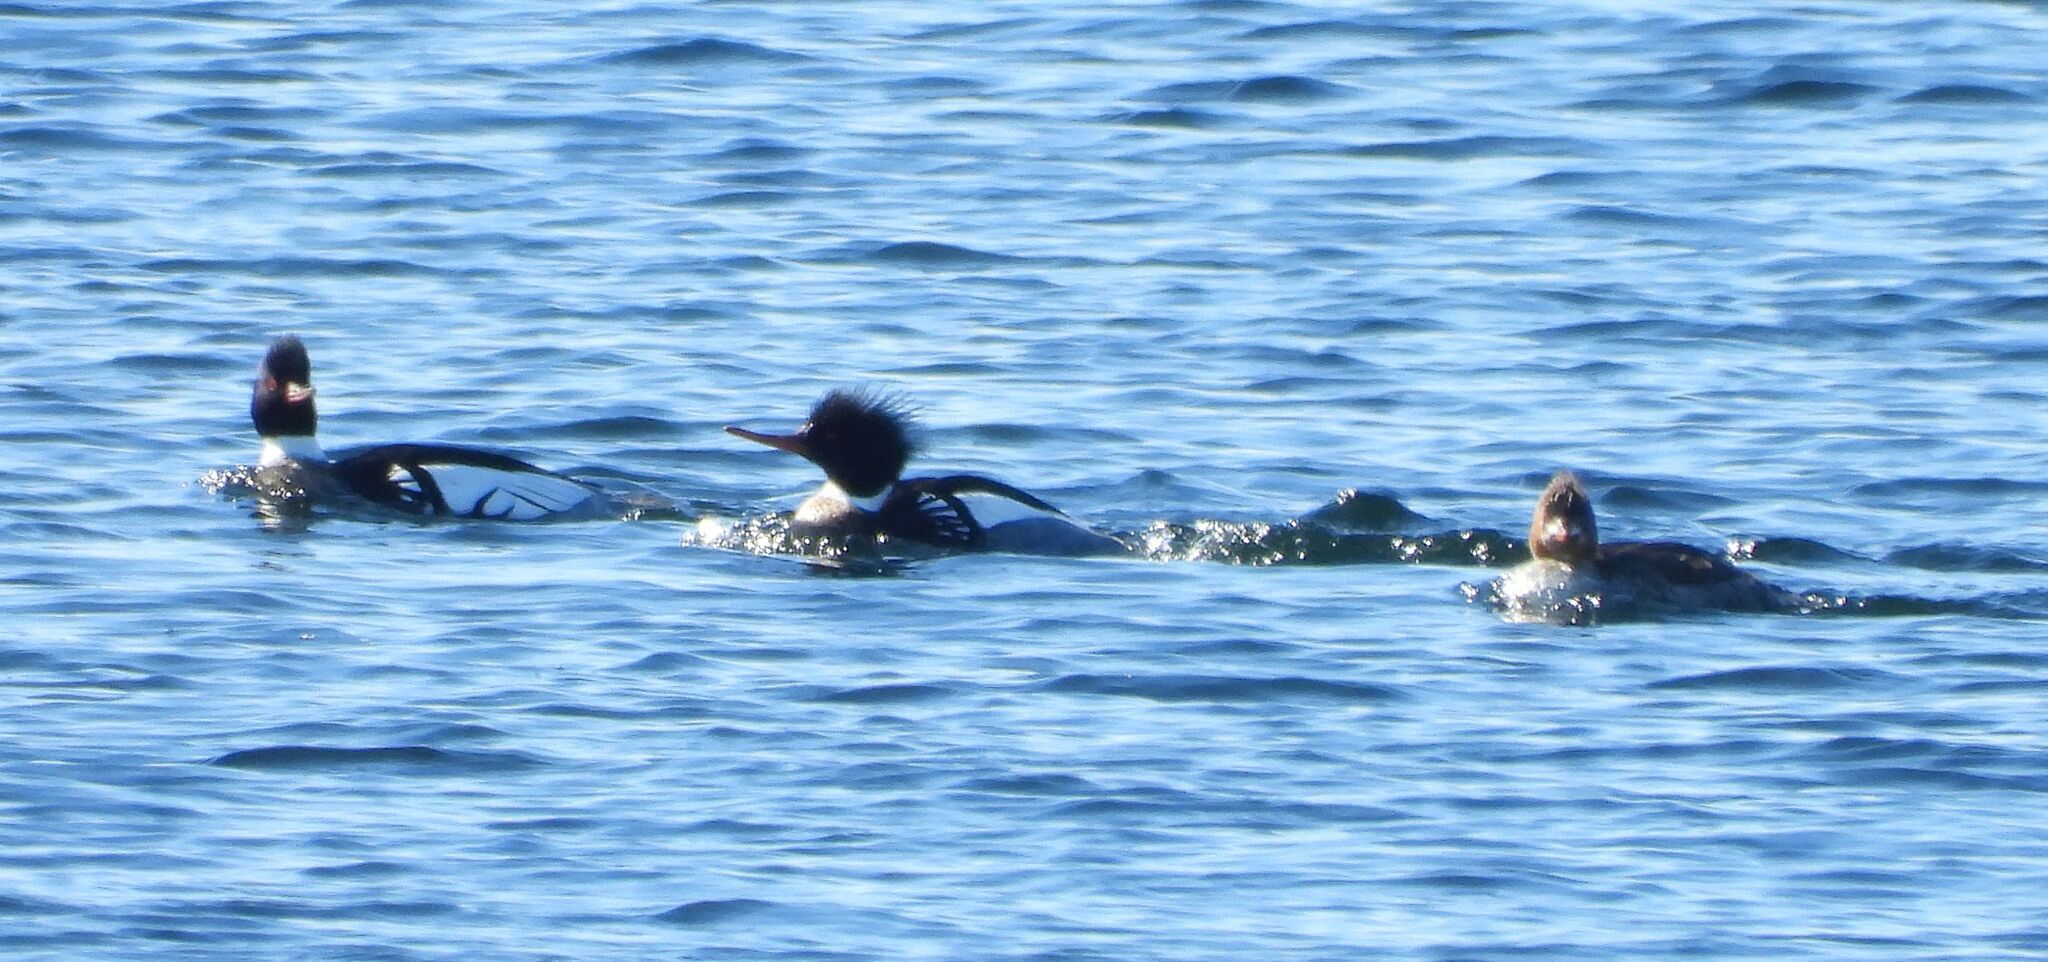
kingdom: Animalia
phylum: Chordata
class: Aves
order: Anseriformes
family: Anatidae
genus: Mergus
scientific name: Mergus serrator
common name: Red-breasted merganser
